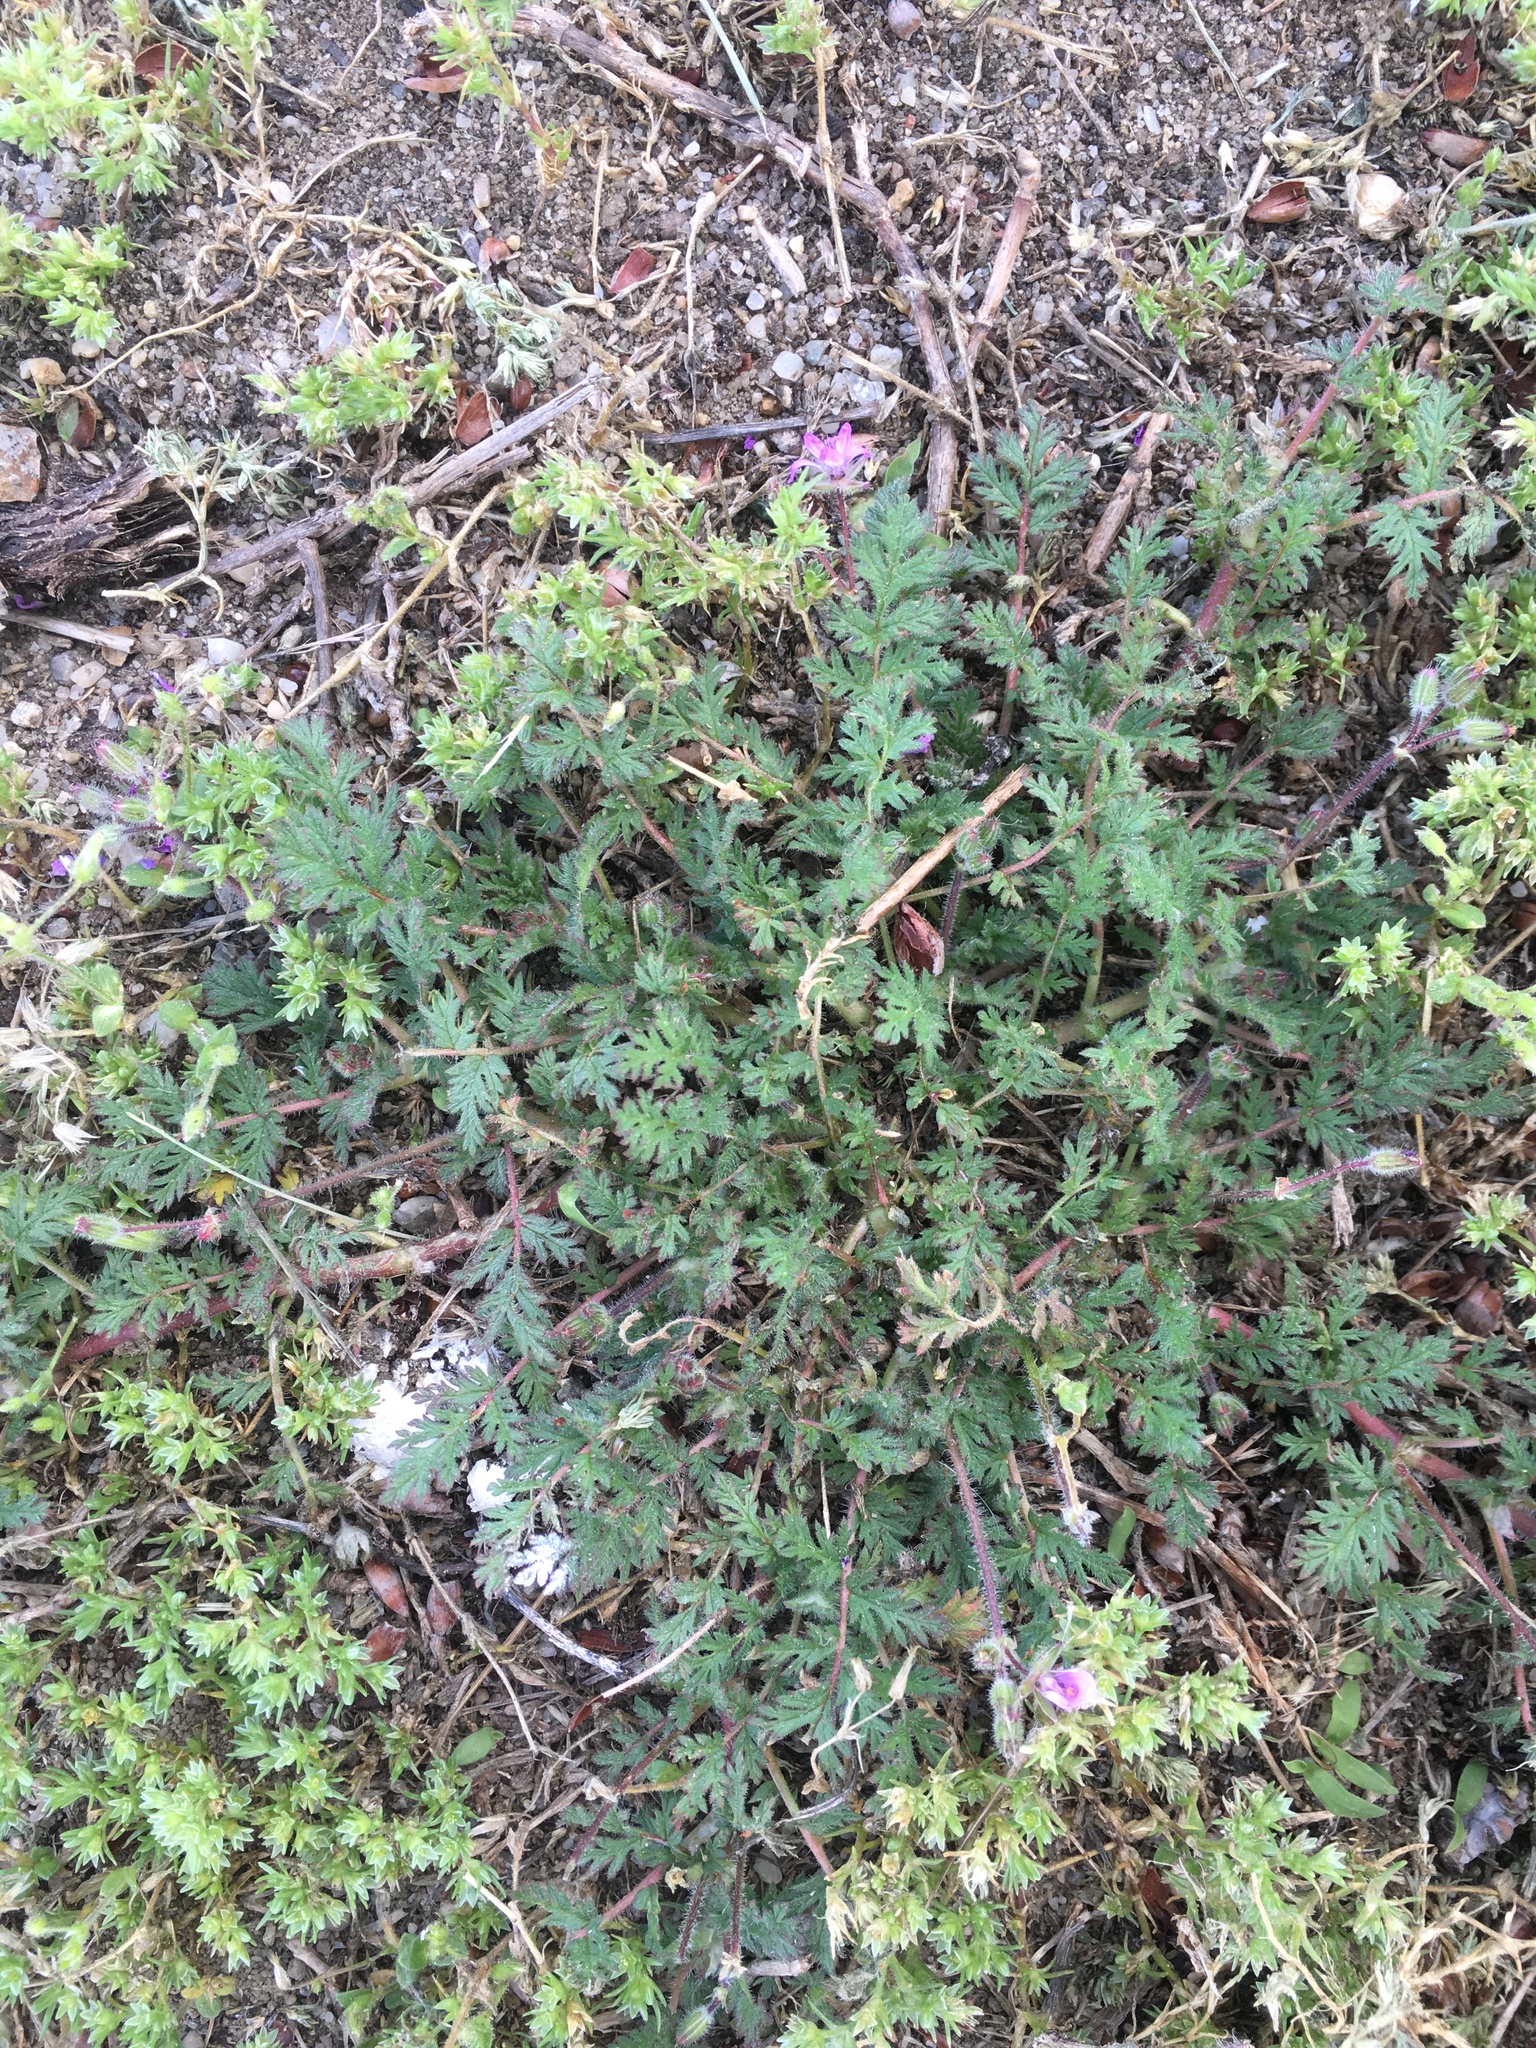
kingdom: Plantae
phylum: Tracheophyta
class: Magnoliopsida
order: Geraniales
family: Geraniaceae
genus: Erodium
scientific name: Erodium cicutarium
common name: Common stork's-bill
